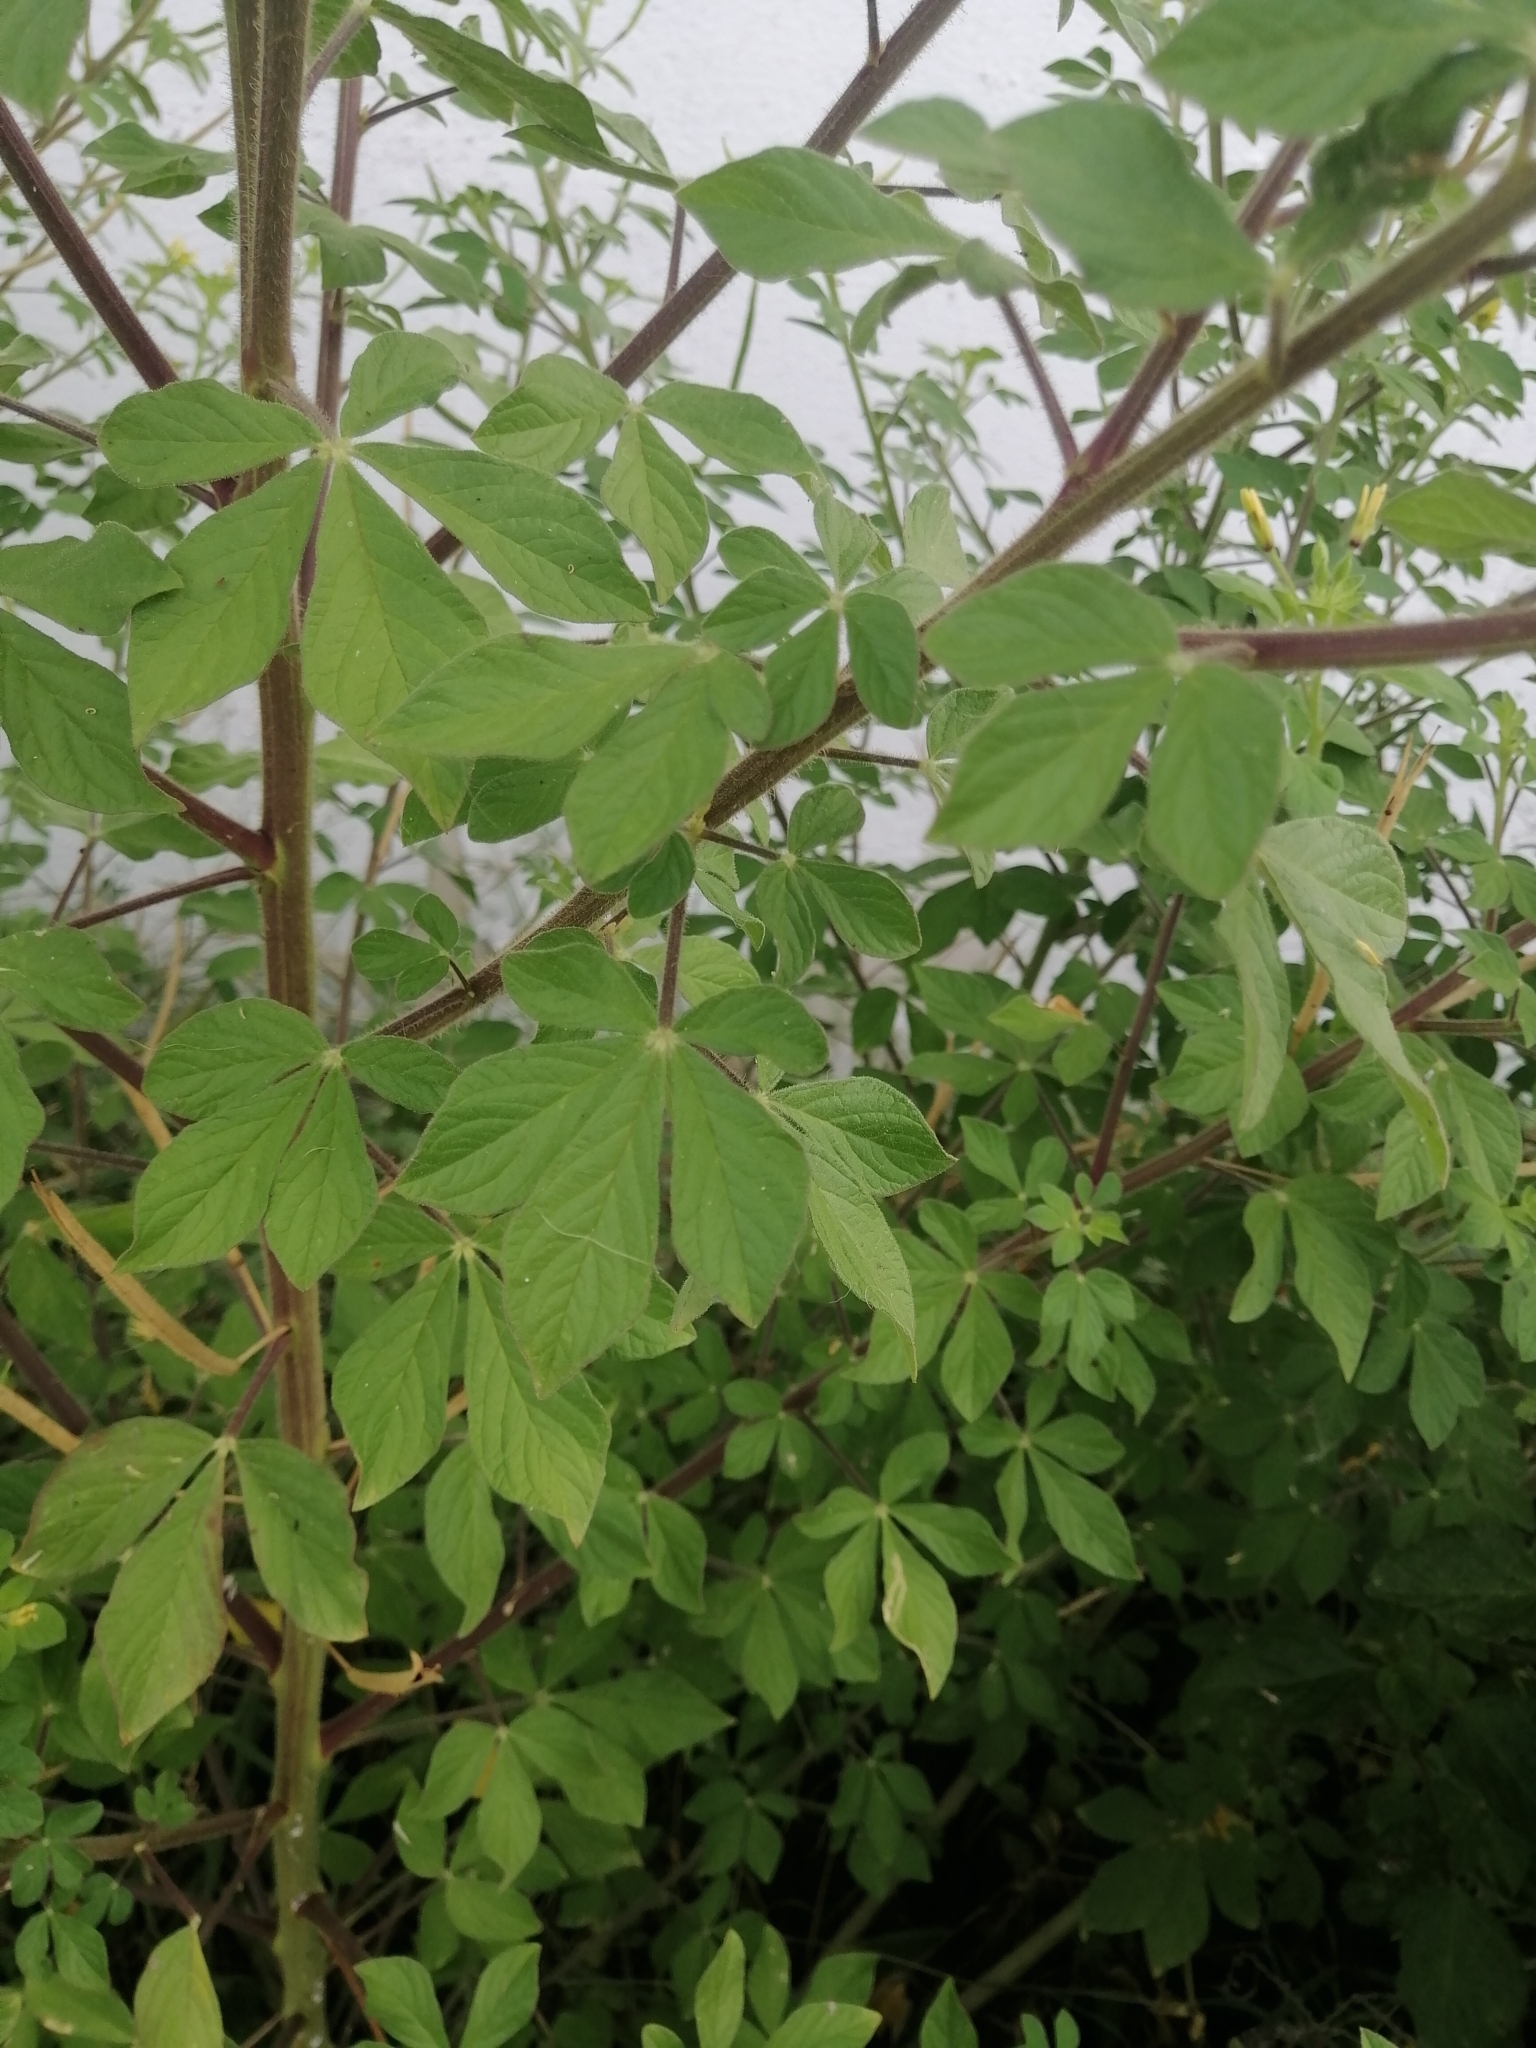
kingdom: Plantae
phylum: Tracheophyta
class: Magnoliopsida
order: Brassicales
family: Cleomaceae
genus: Arivela
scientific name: Arivela viscosa
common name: Asian spiderflower
